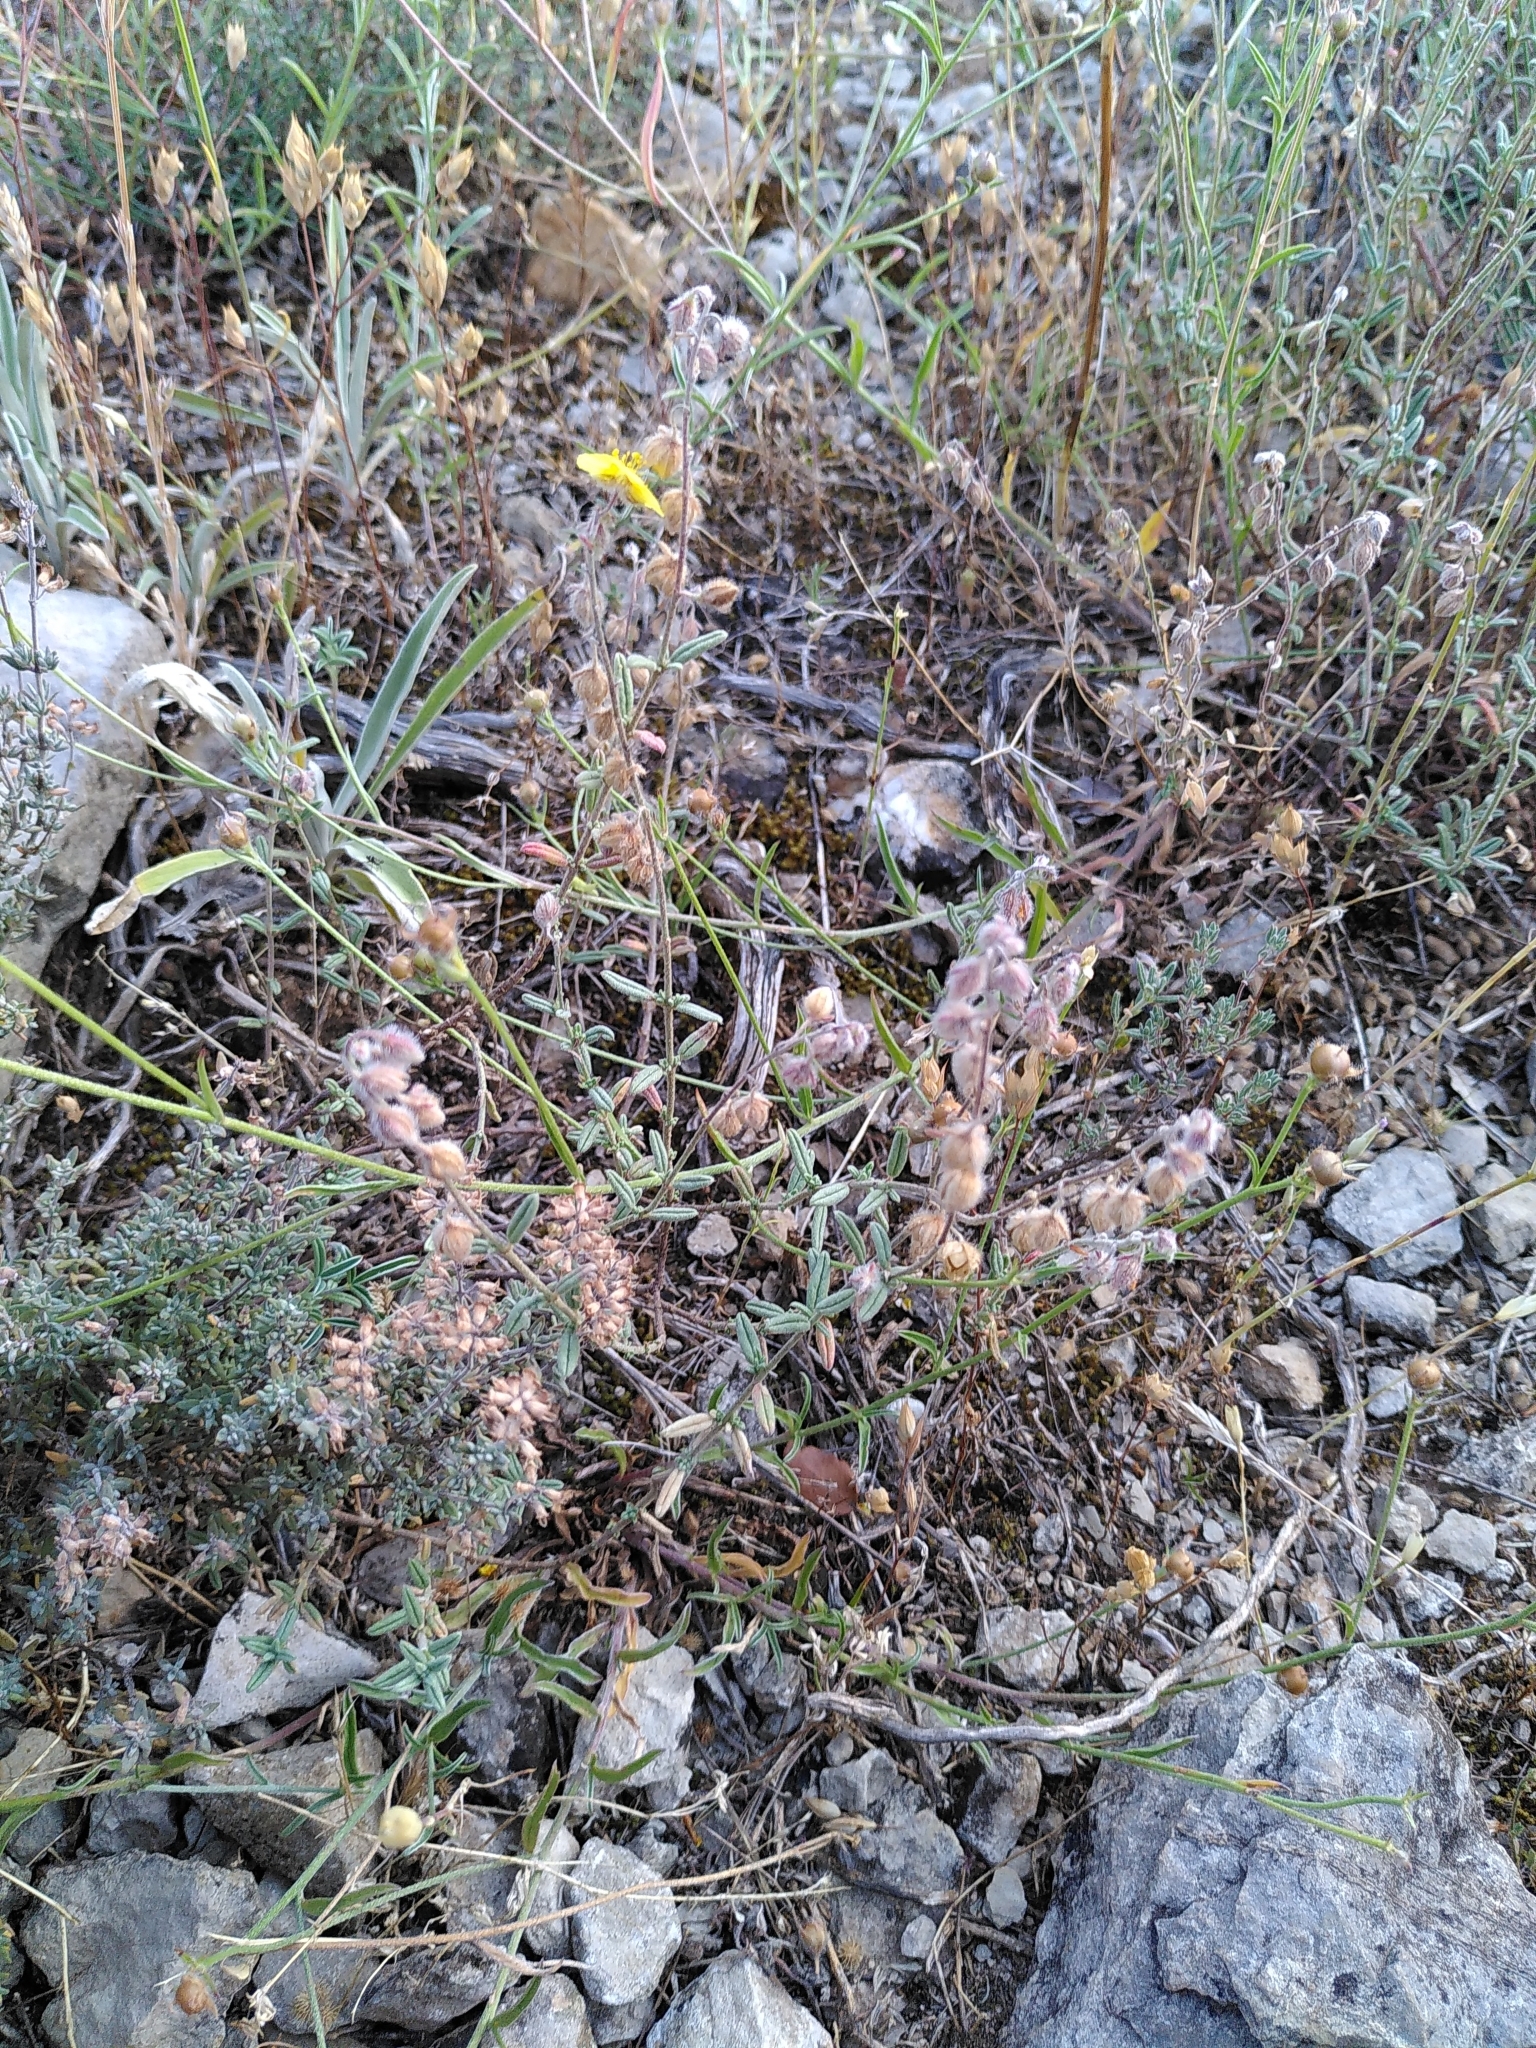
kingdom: Plantae
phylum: Tracheophyta
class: Magnoliopsida
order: Malvales
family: Cistaceae
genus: Helianthemum
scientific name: Helianthemum hirtum
